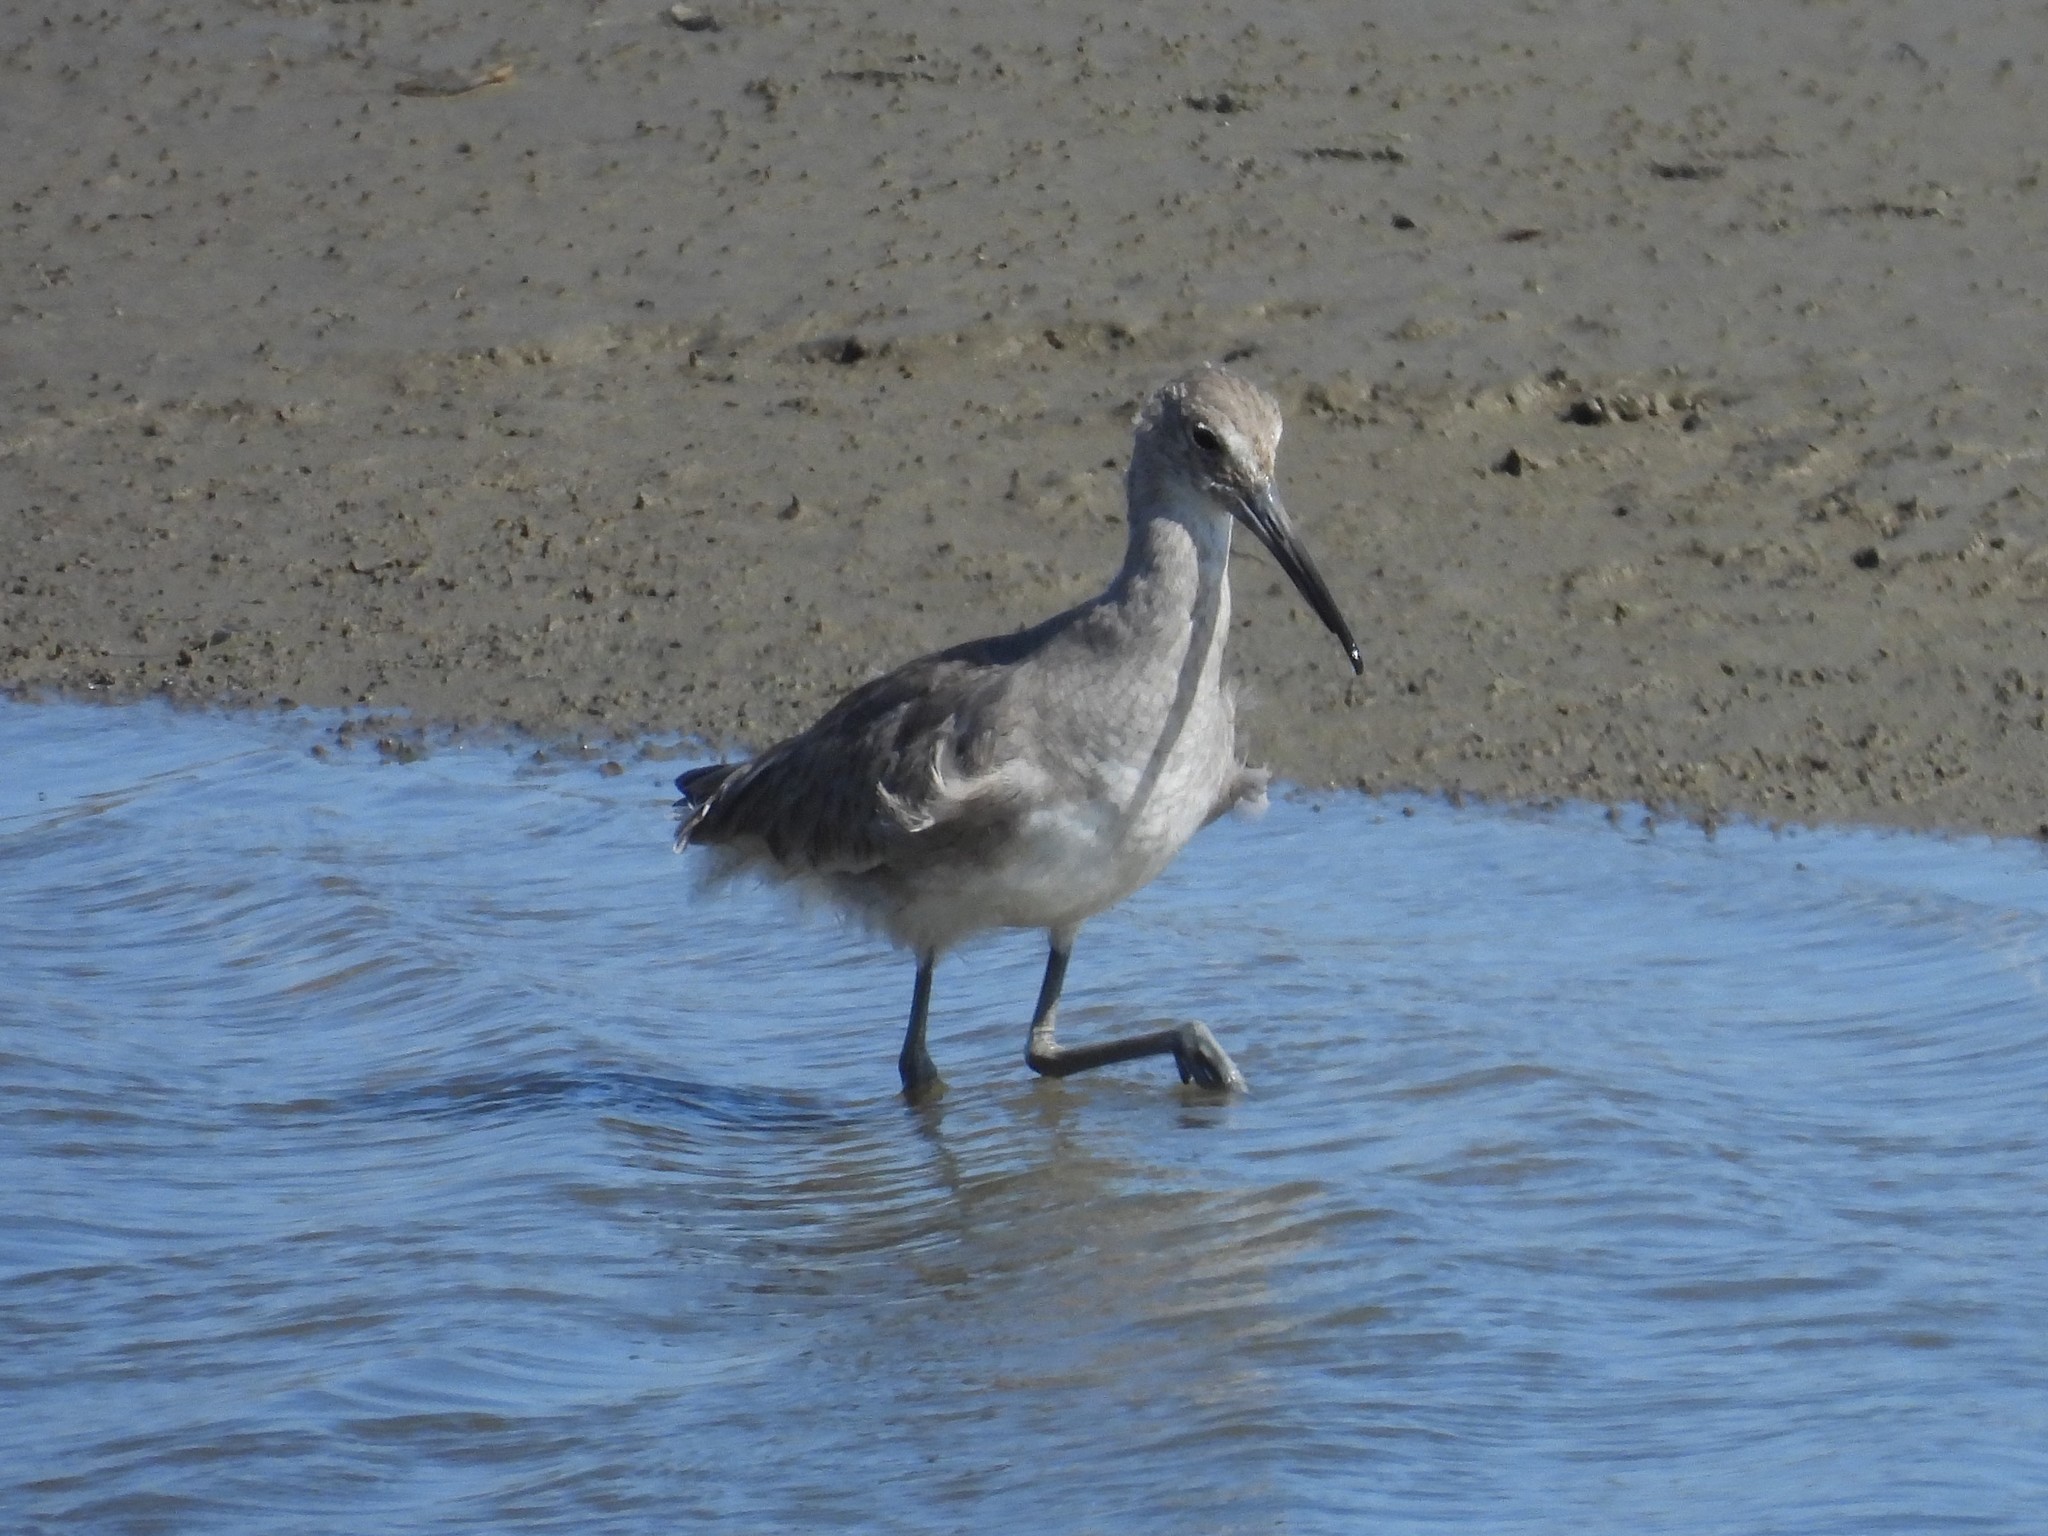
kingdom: Animalia
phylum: Chordata
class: Aves
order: Charadriiformes
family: Scolopacidae
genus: Tringa
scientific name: Tringa semipalmata
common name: Willet
